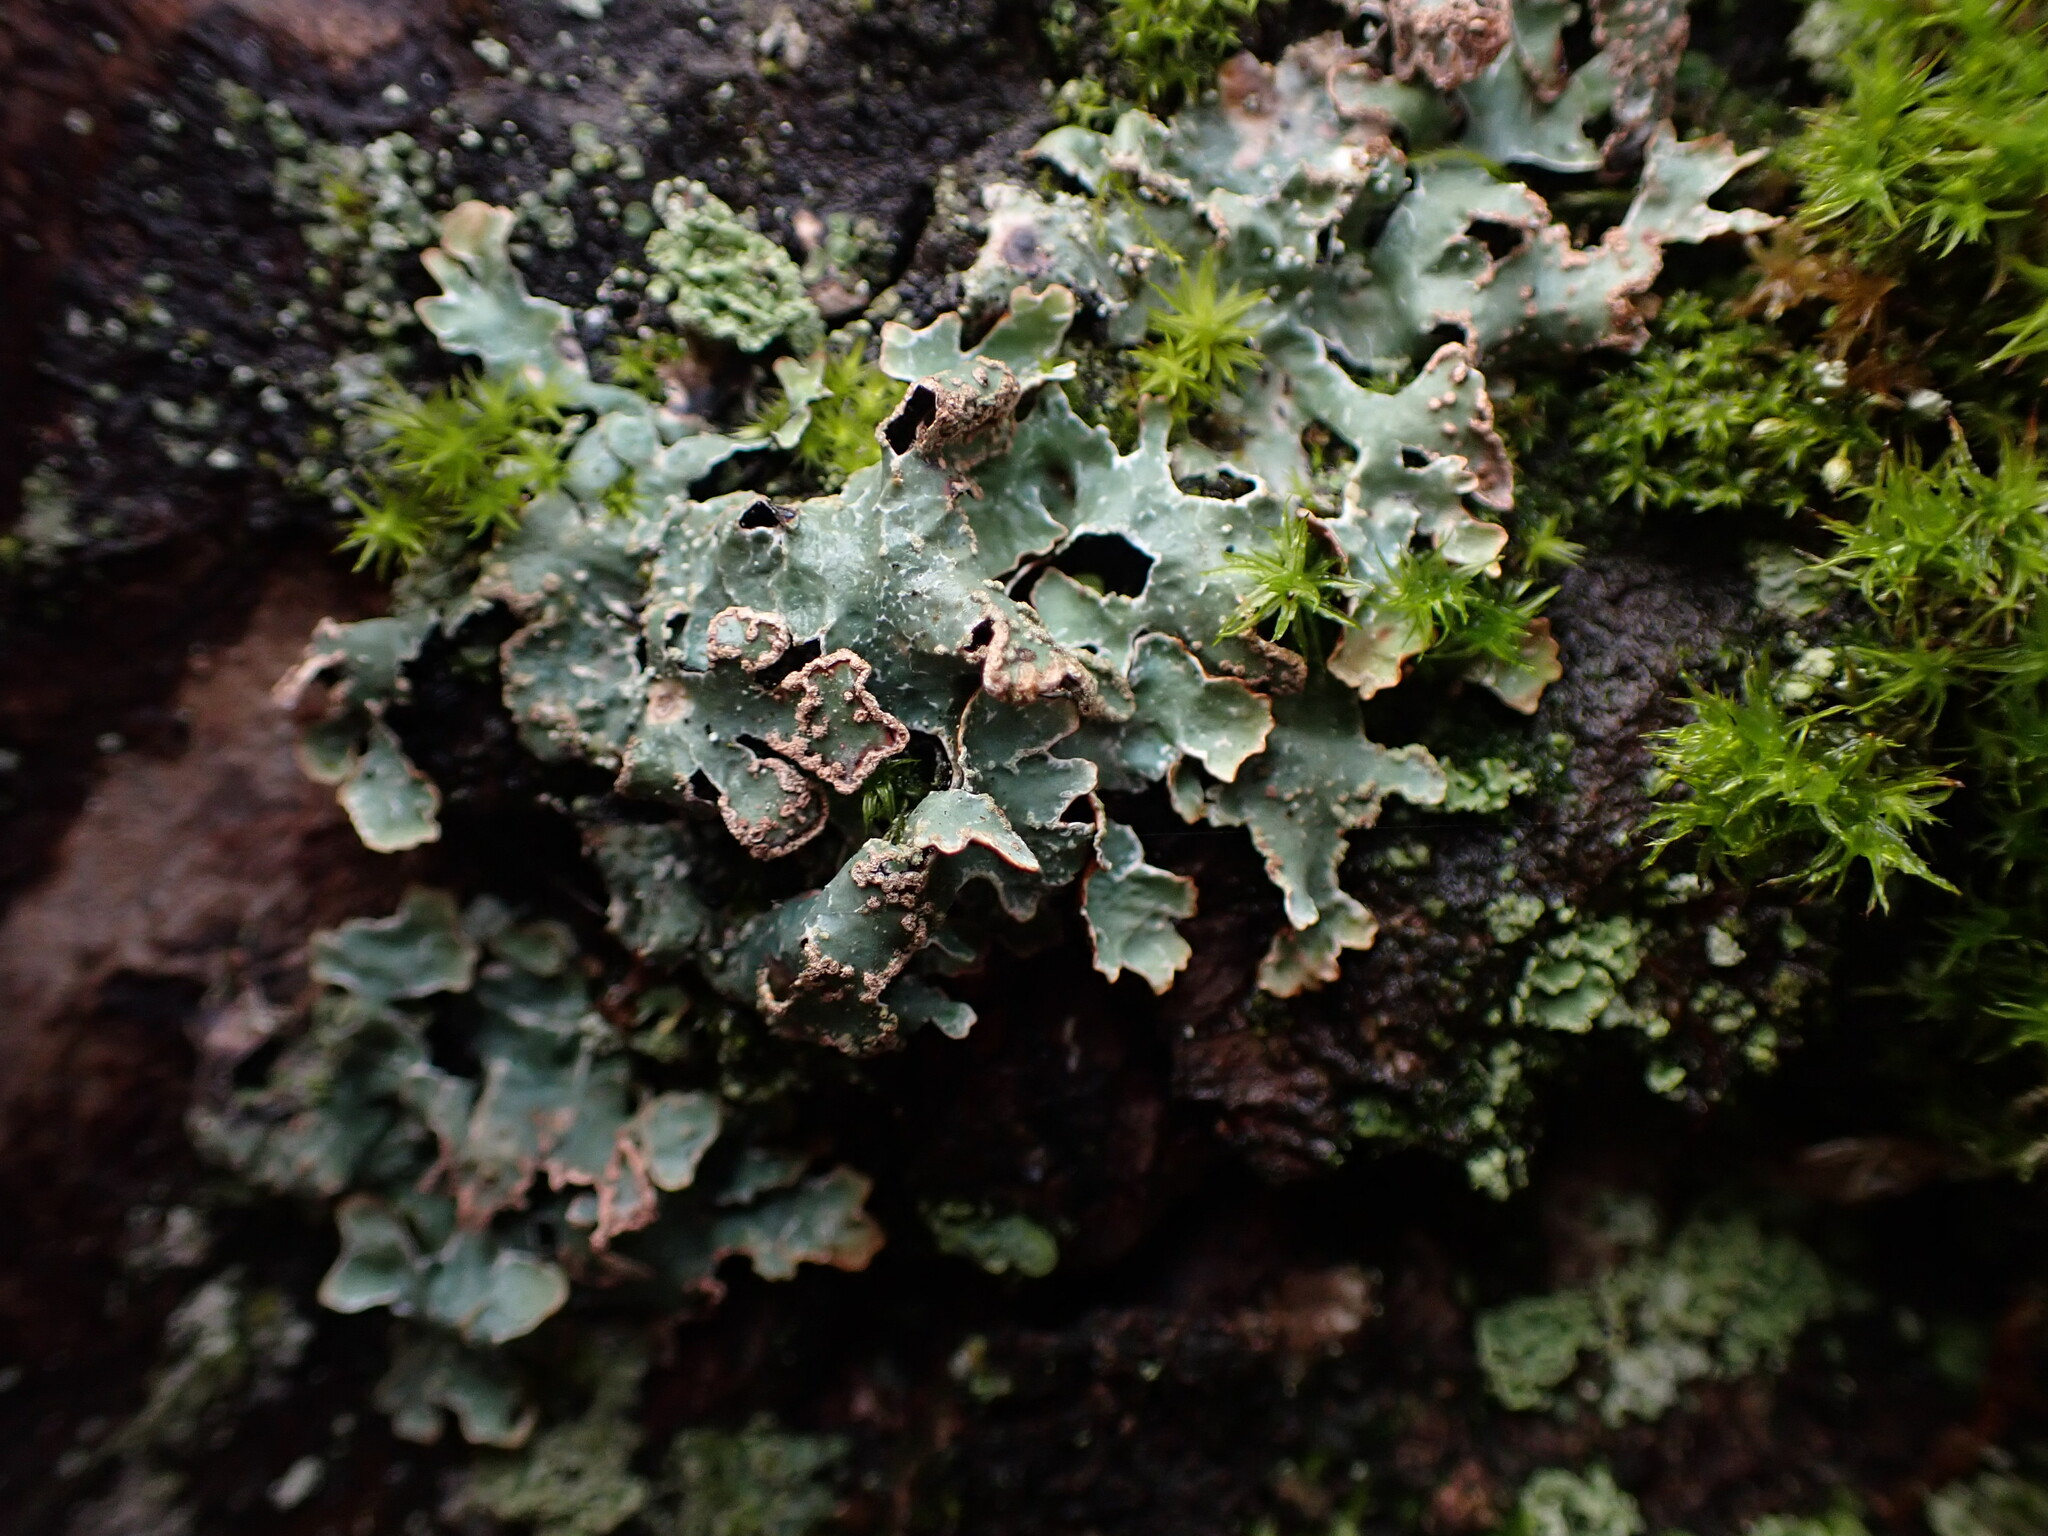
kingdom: Fungi
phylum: Ascomycota
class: Lecanoromycetes
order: Lecanorales
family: Parmeliaceae
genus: Parmelia
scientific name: Parmelia sulcata
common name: Netted shield lichen
